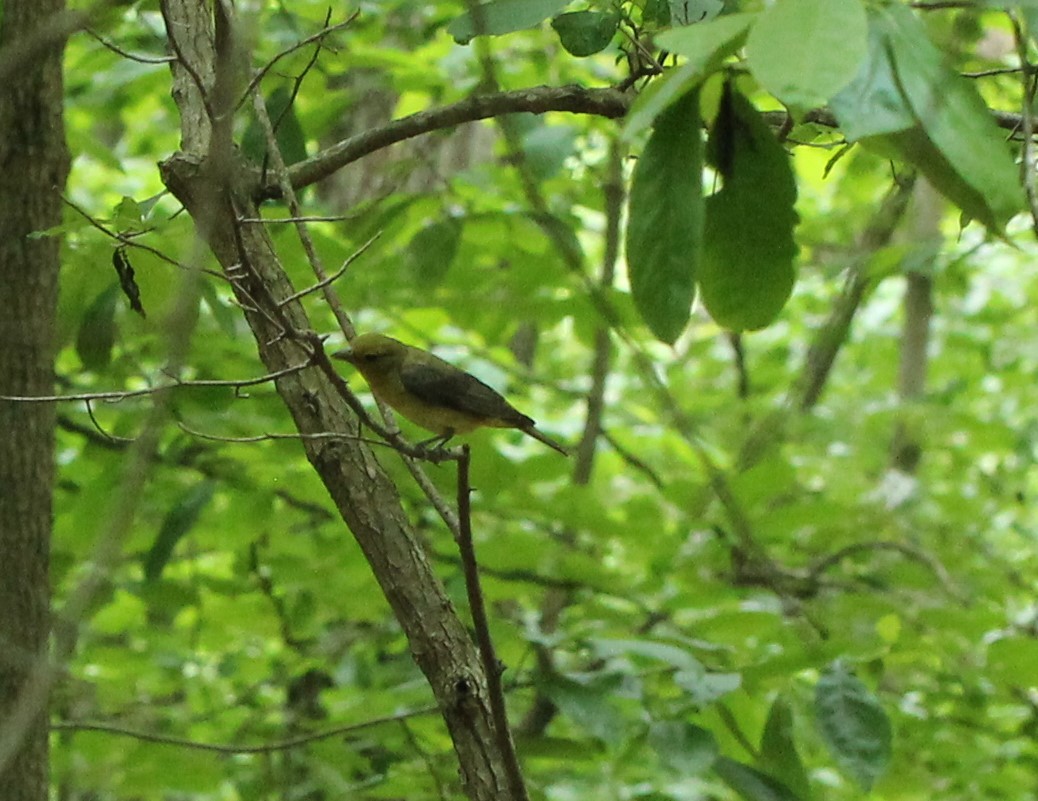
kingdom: Animalia
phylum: Chordata
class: Aves
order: Passeriformes
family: Cardinalidae
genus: Piranga
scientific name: Piranga olivacea
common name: Scarlet tanager
